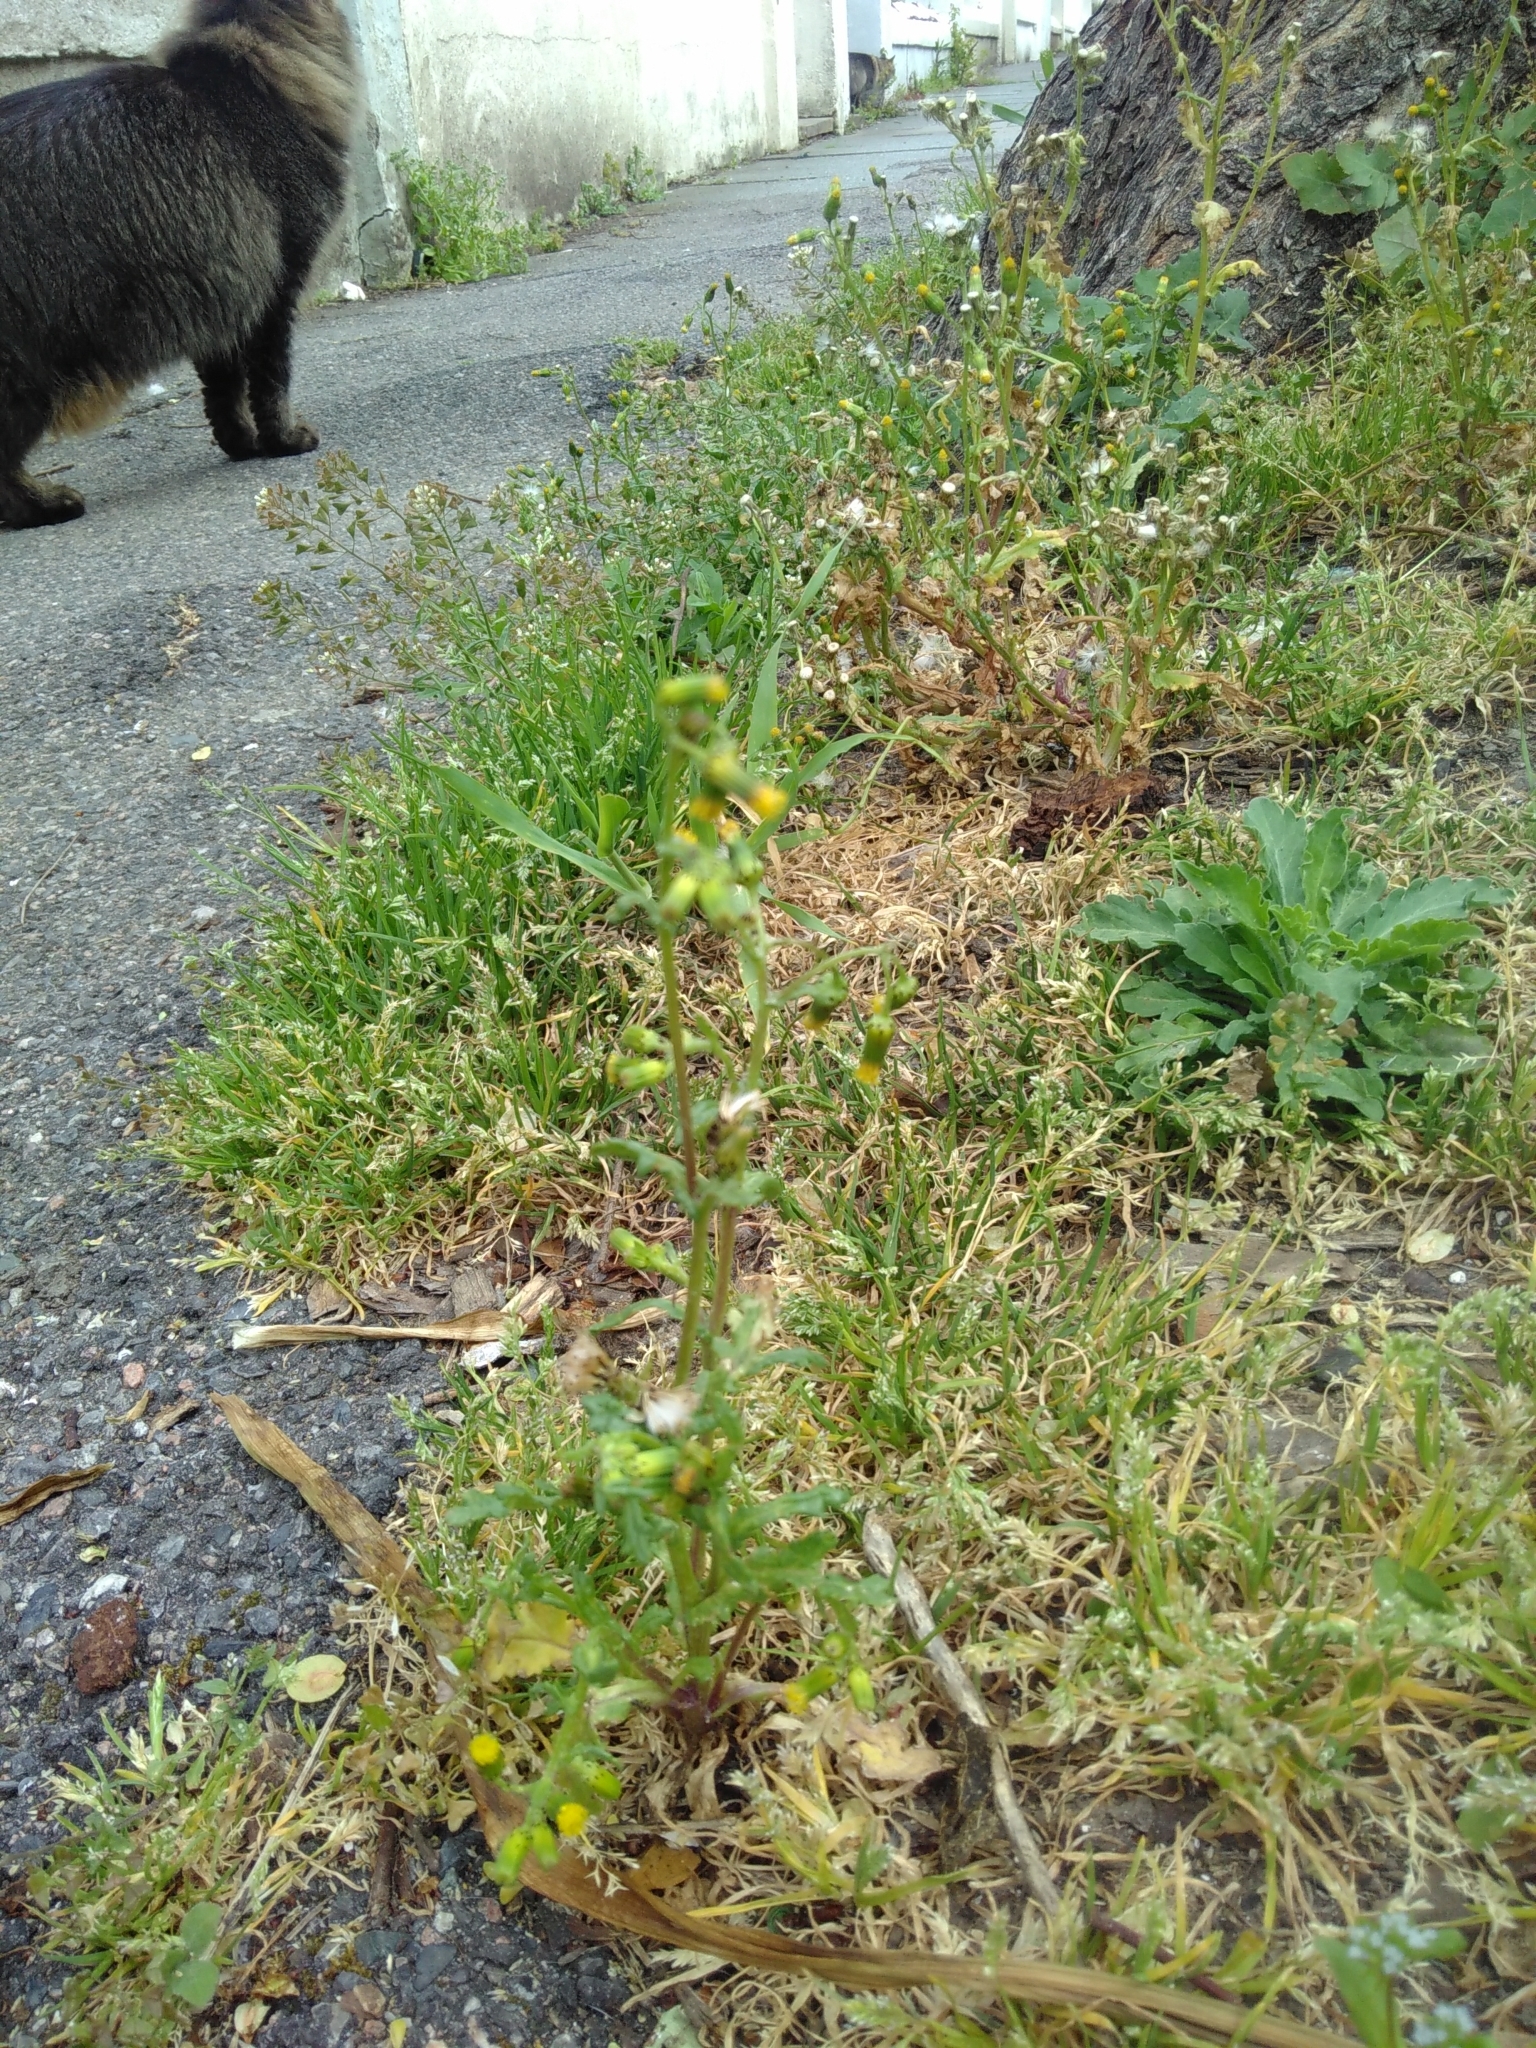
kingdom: Plantae
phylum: Tracheophyta
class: Magnoliopsida
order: Asterales
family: Asteraceae
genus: Senecio
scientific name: Senecio vulgaris
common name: Old-man-in-the-spring
